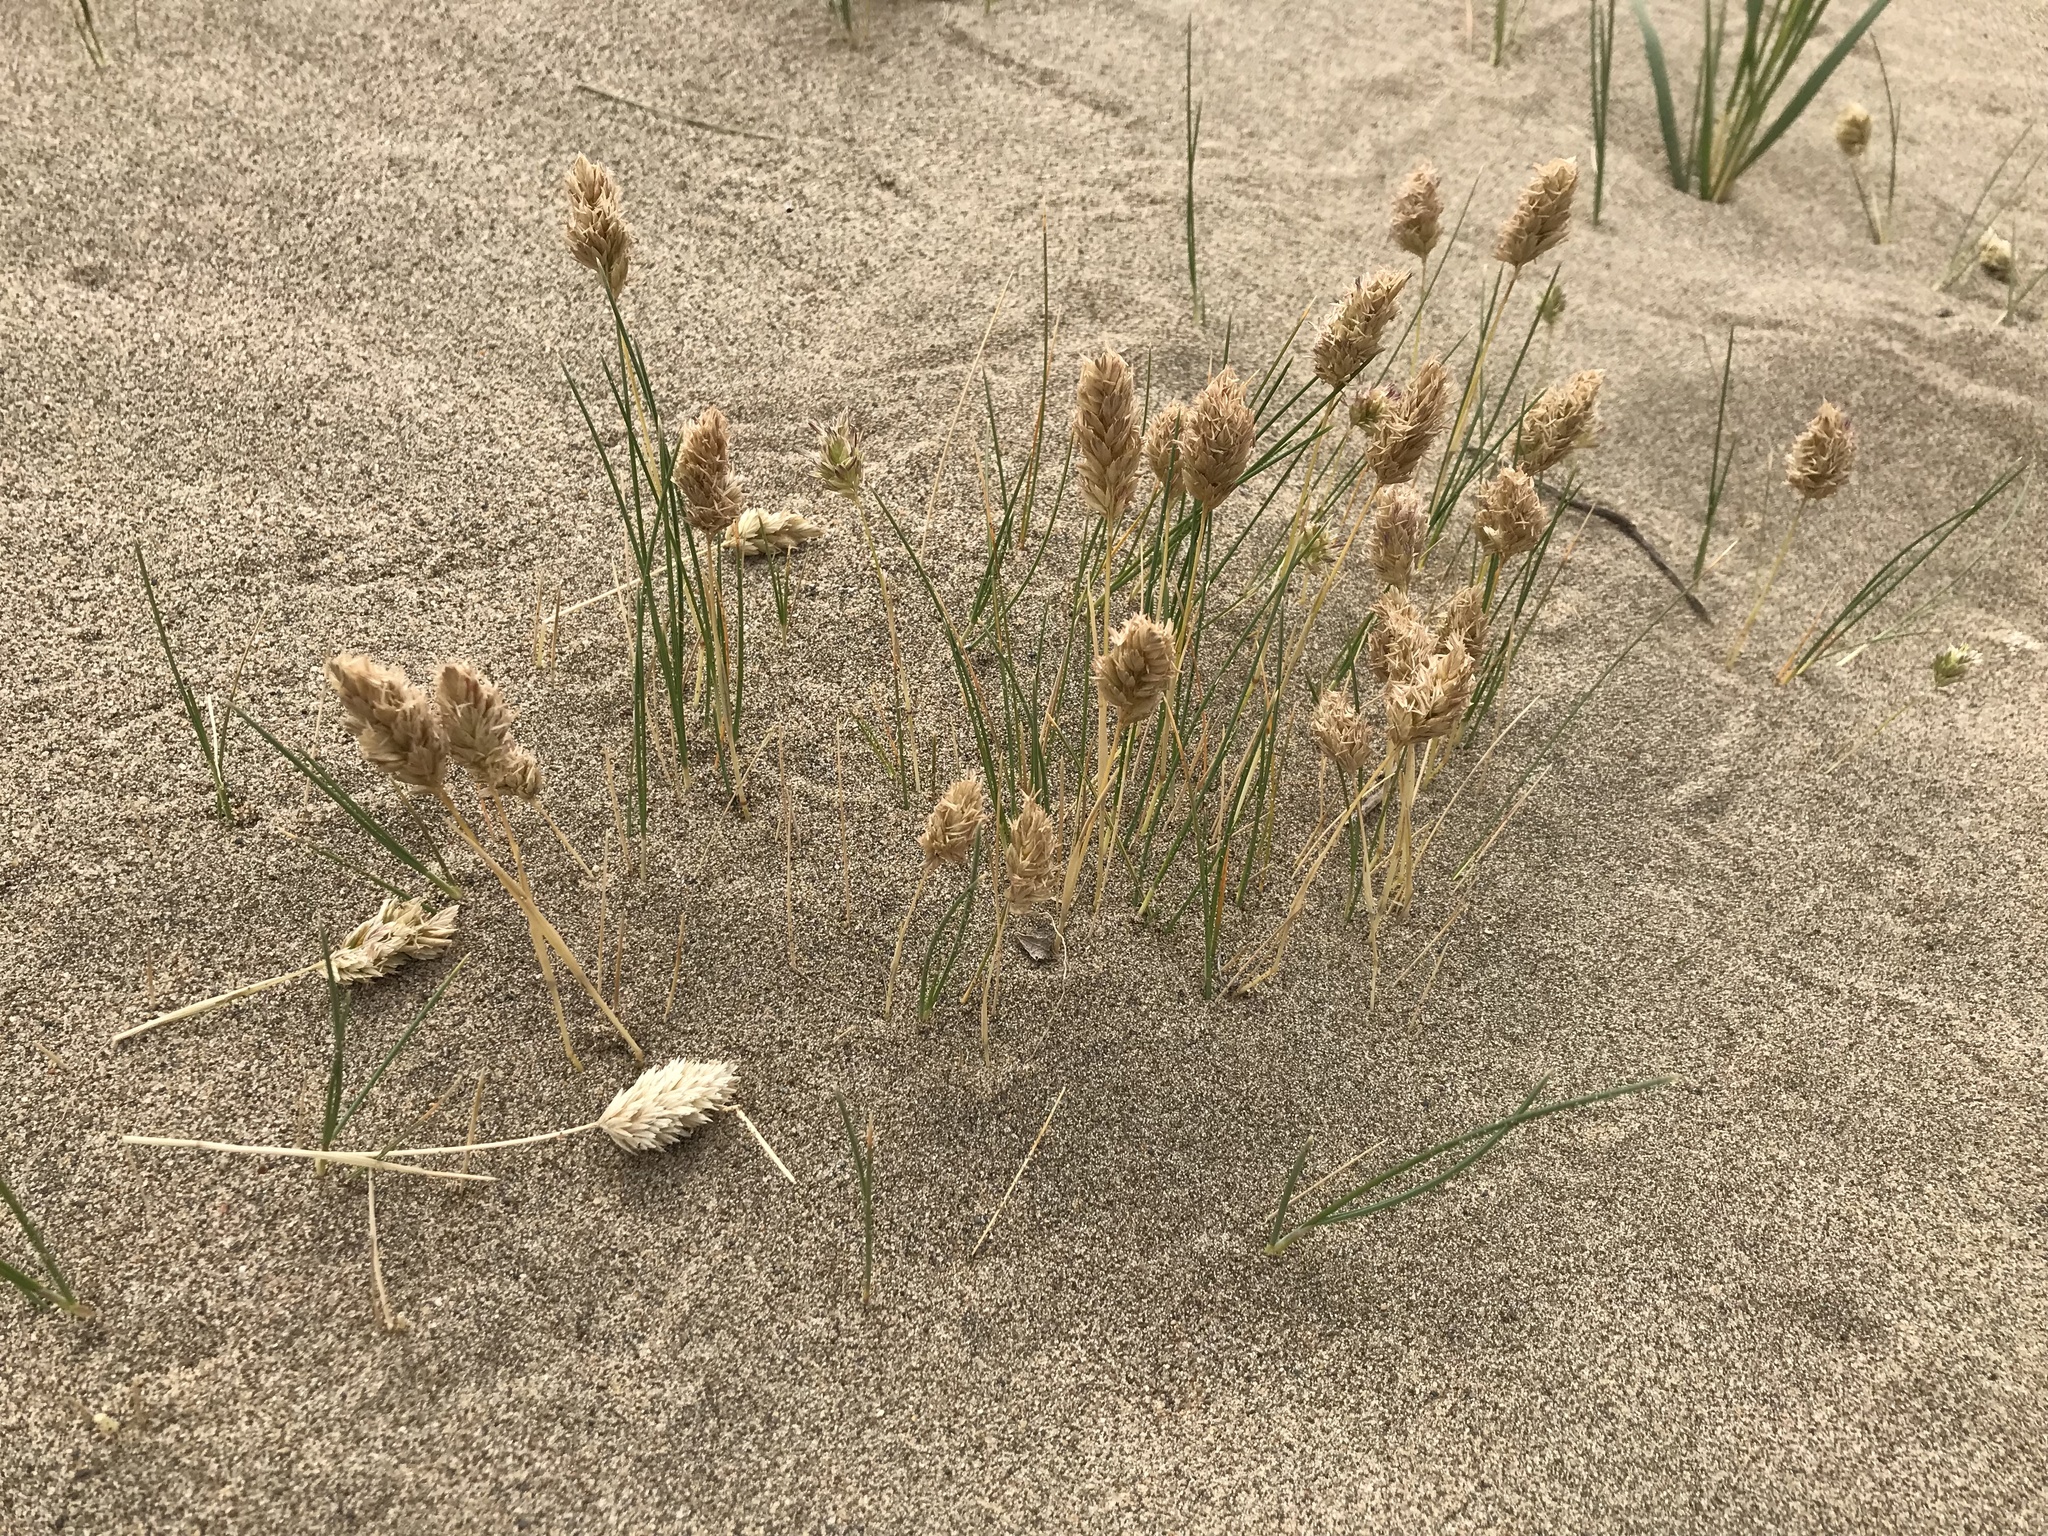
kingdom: Plantae
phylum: Tracheophyta
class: Liliopsida
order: Poales
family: Poaceae
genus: Poa
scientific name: Poa douglasii
